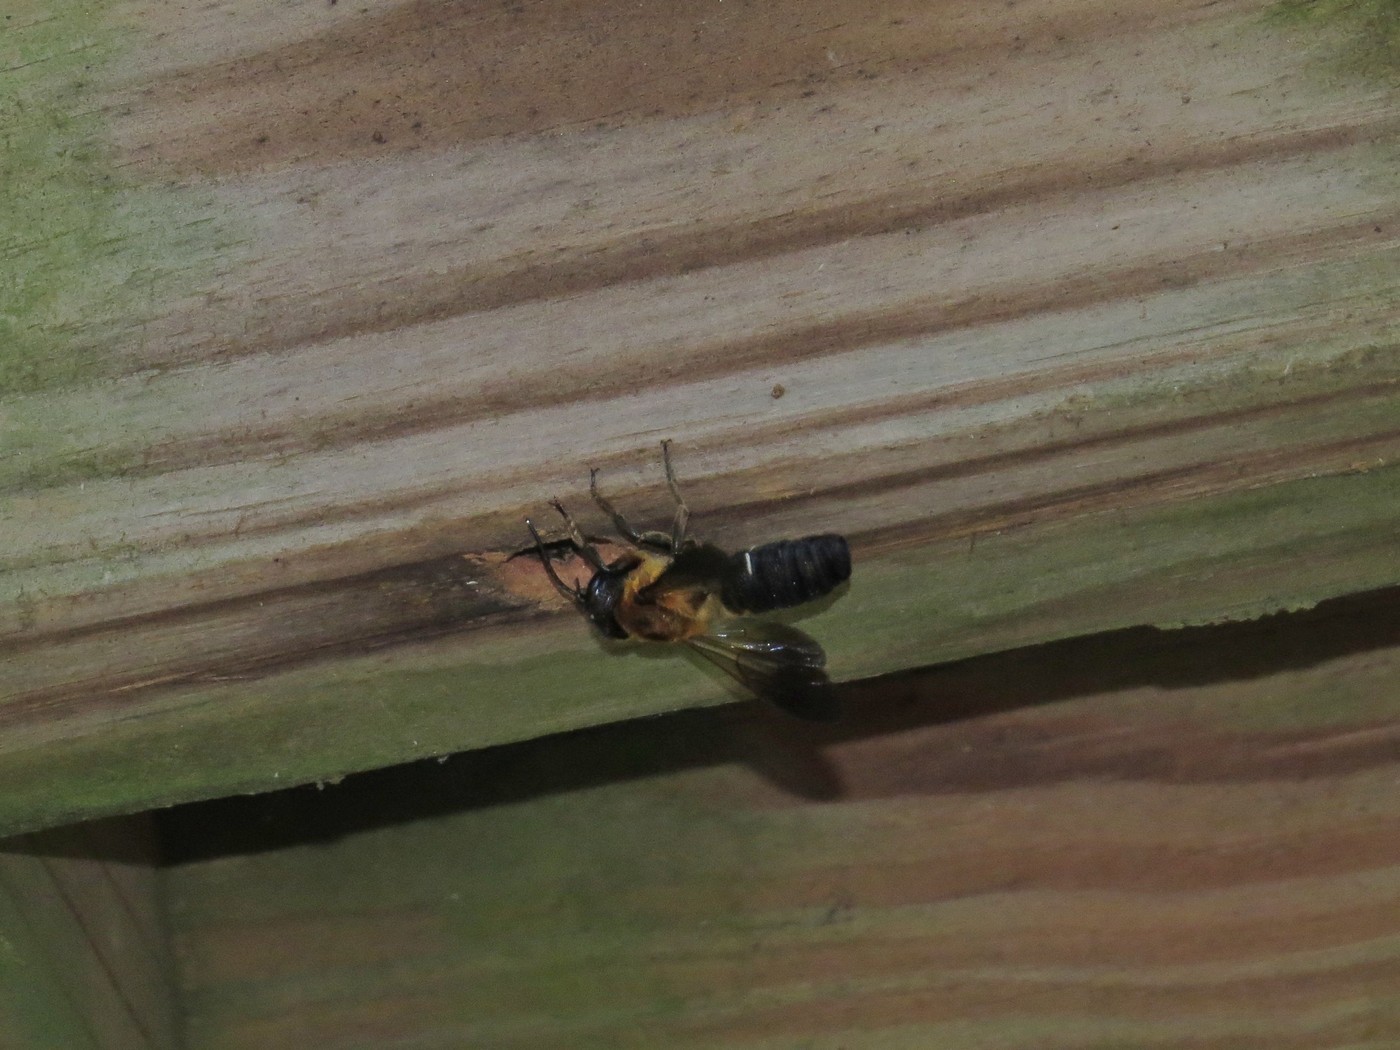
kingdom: Animalia
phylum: Arthropoda
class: Insecta
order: Hymenoptera
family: Megachilidae
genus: Megachile
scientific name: Megachile sculpturalis
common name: Sculptured resin bee
